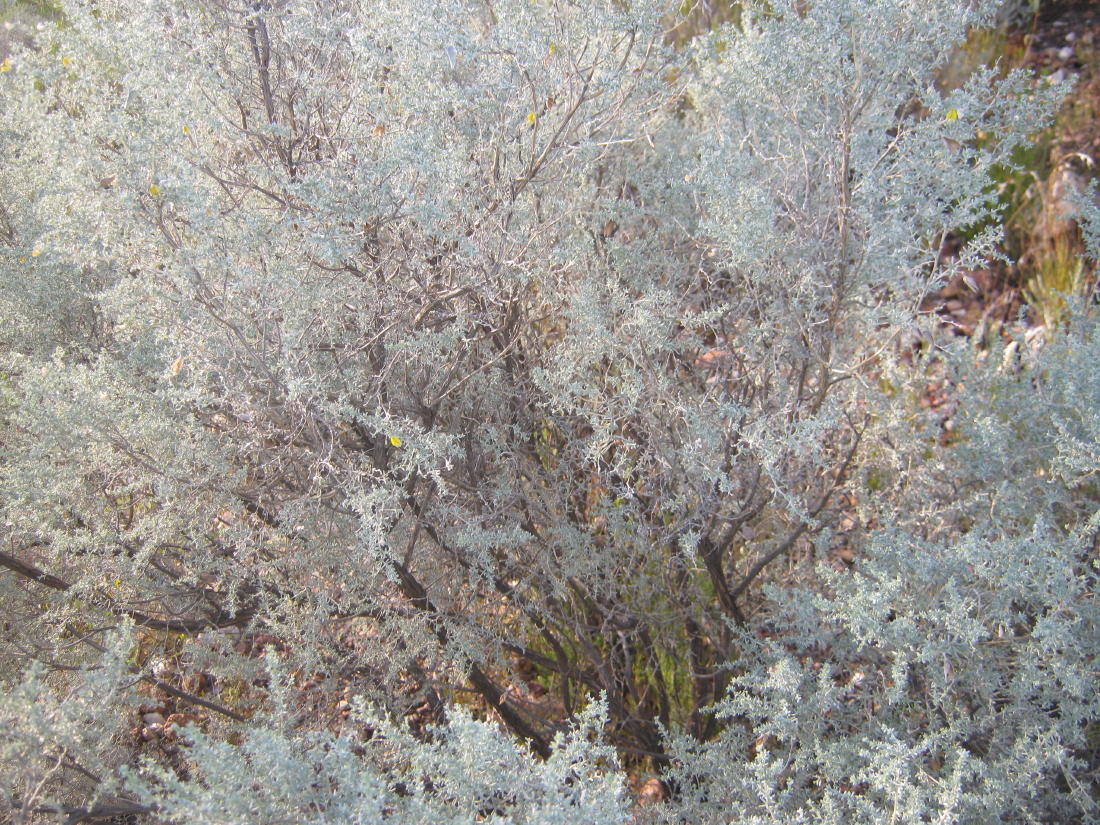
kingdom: Plantae
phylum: Tracheophyta
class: Magnoliopsida
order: Fabales
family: Fabaceae
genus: Aspalathus
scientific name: Aspalathus pedunculata
